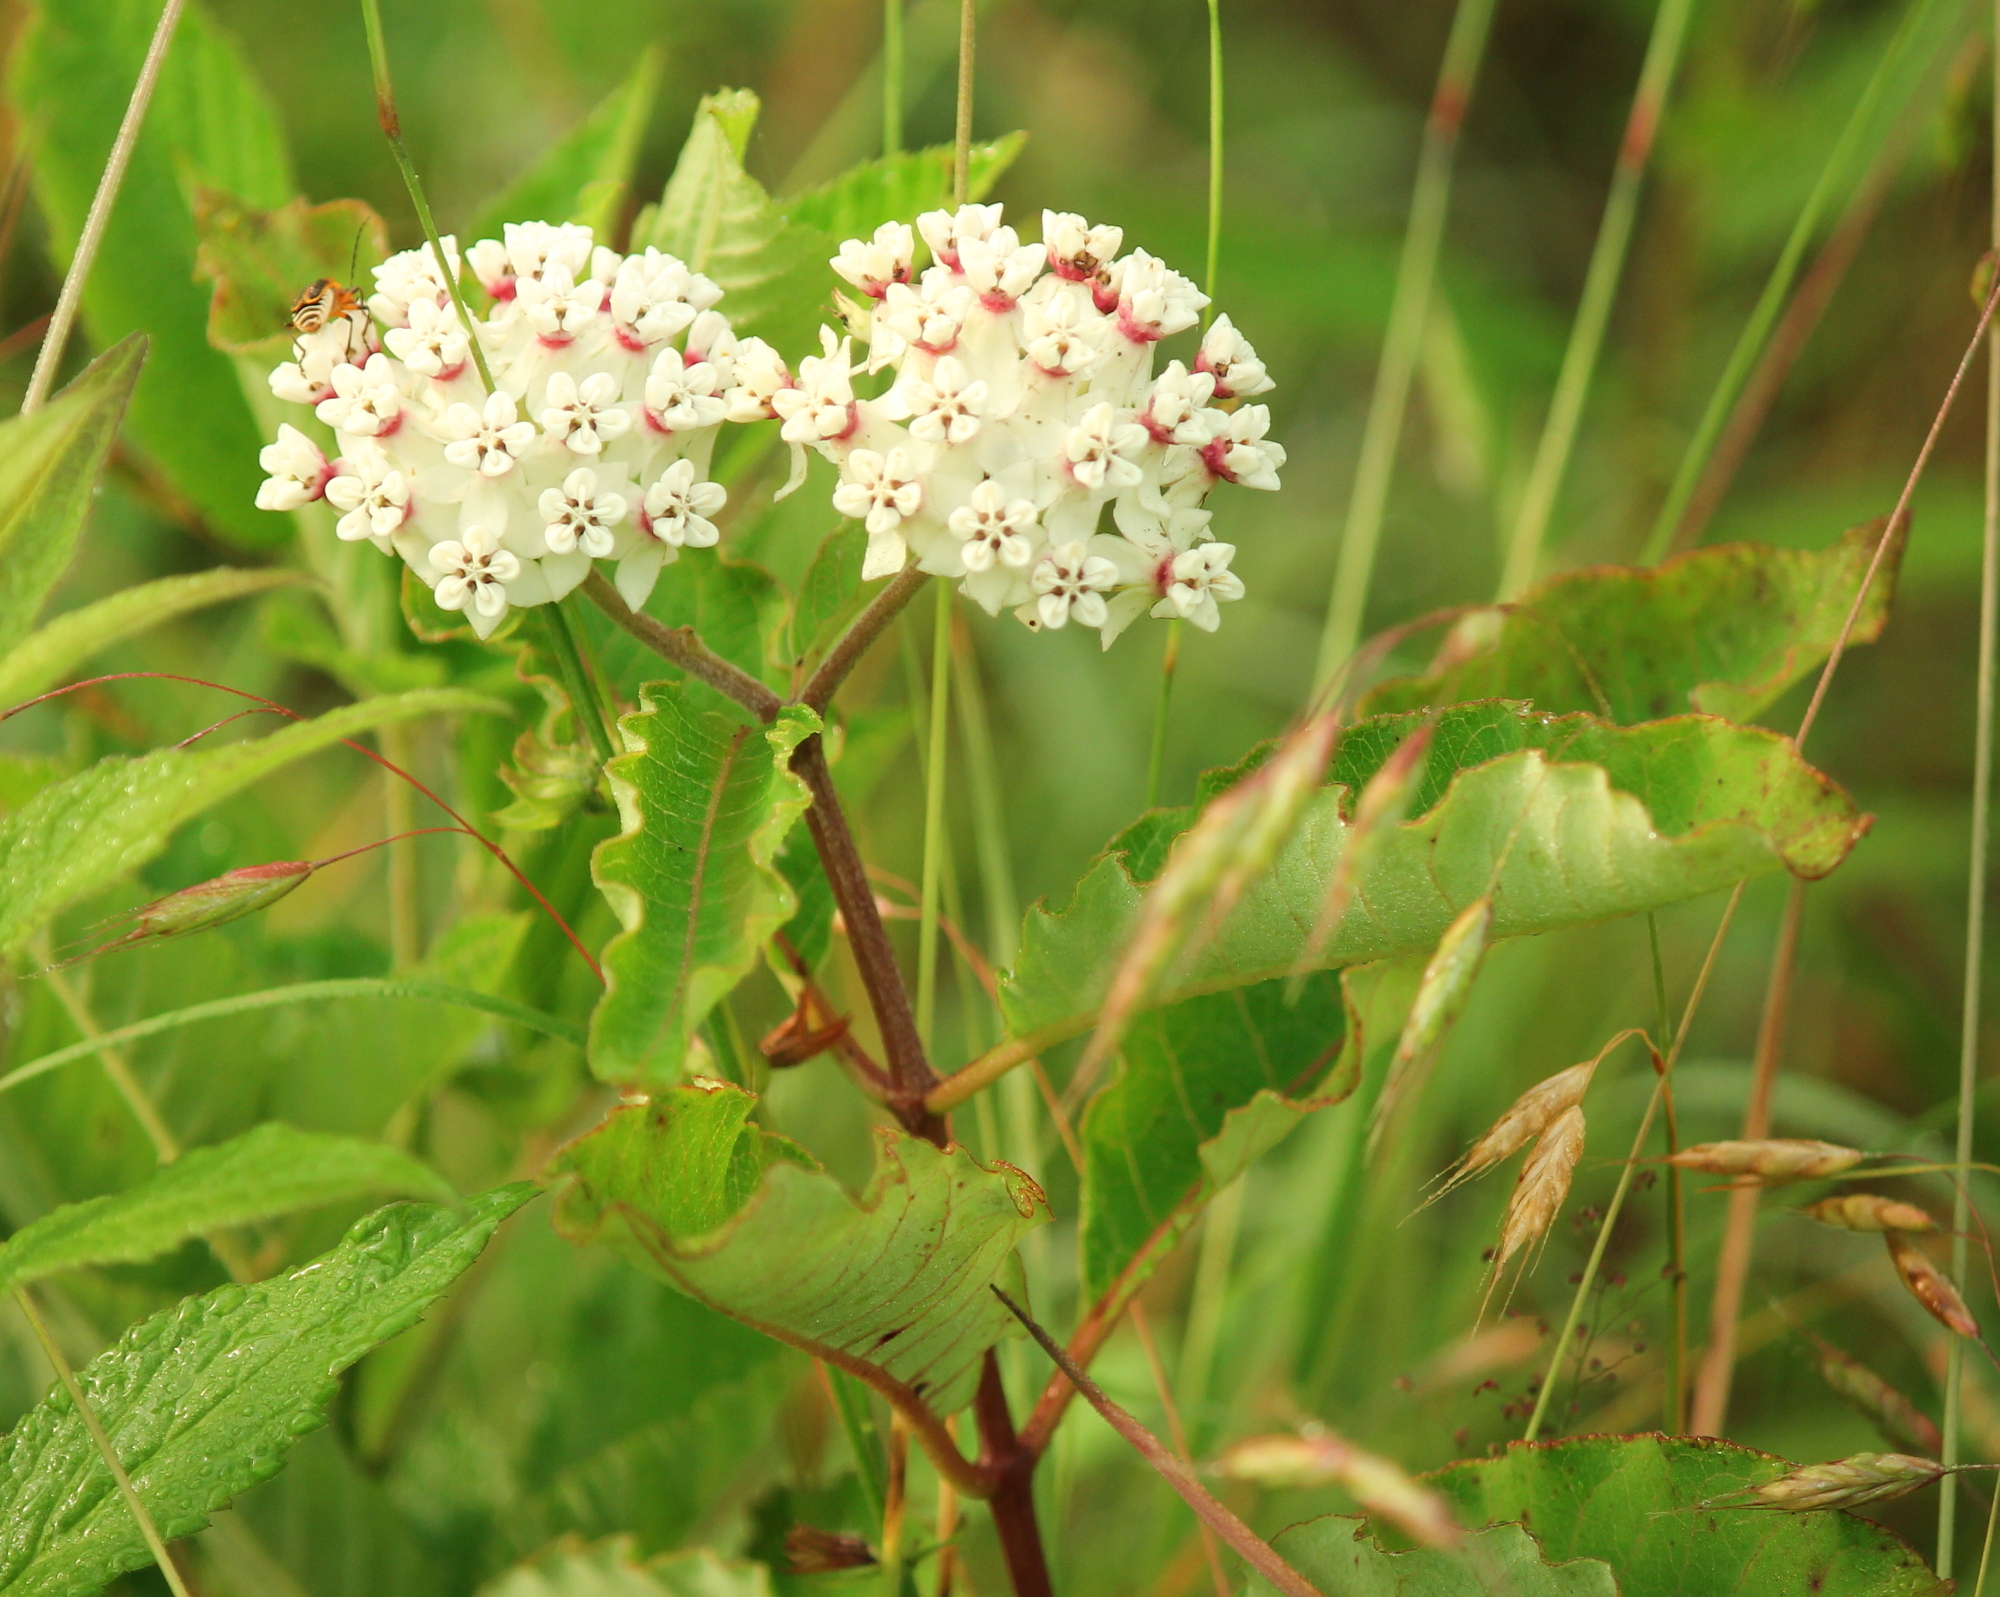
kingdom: Plantae
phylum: Tracheophyta
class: Magnoliopsida
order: Gentianales
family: Apocynaceae
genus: Asclepias
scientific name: Asclepias variegata
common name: Variegated milkweed
